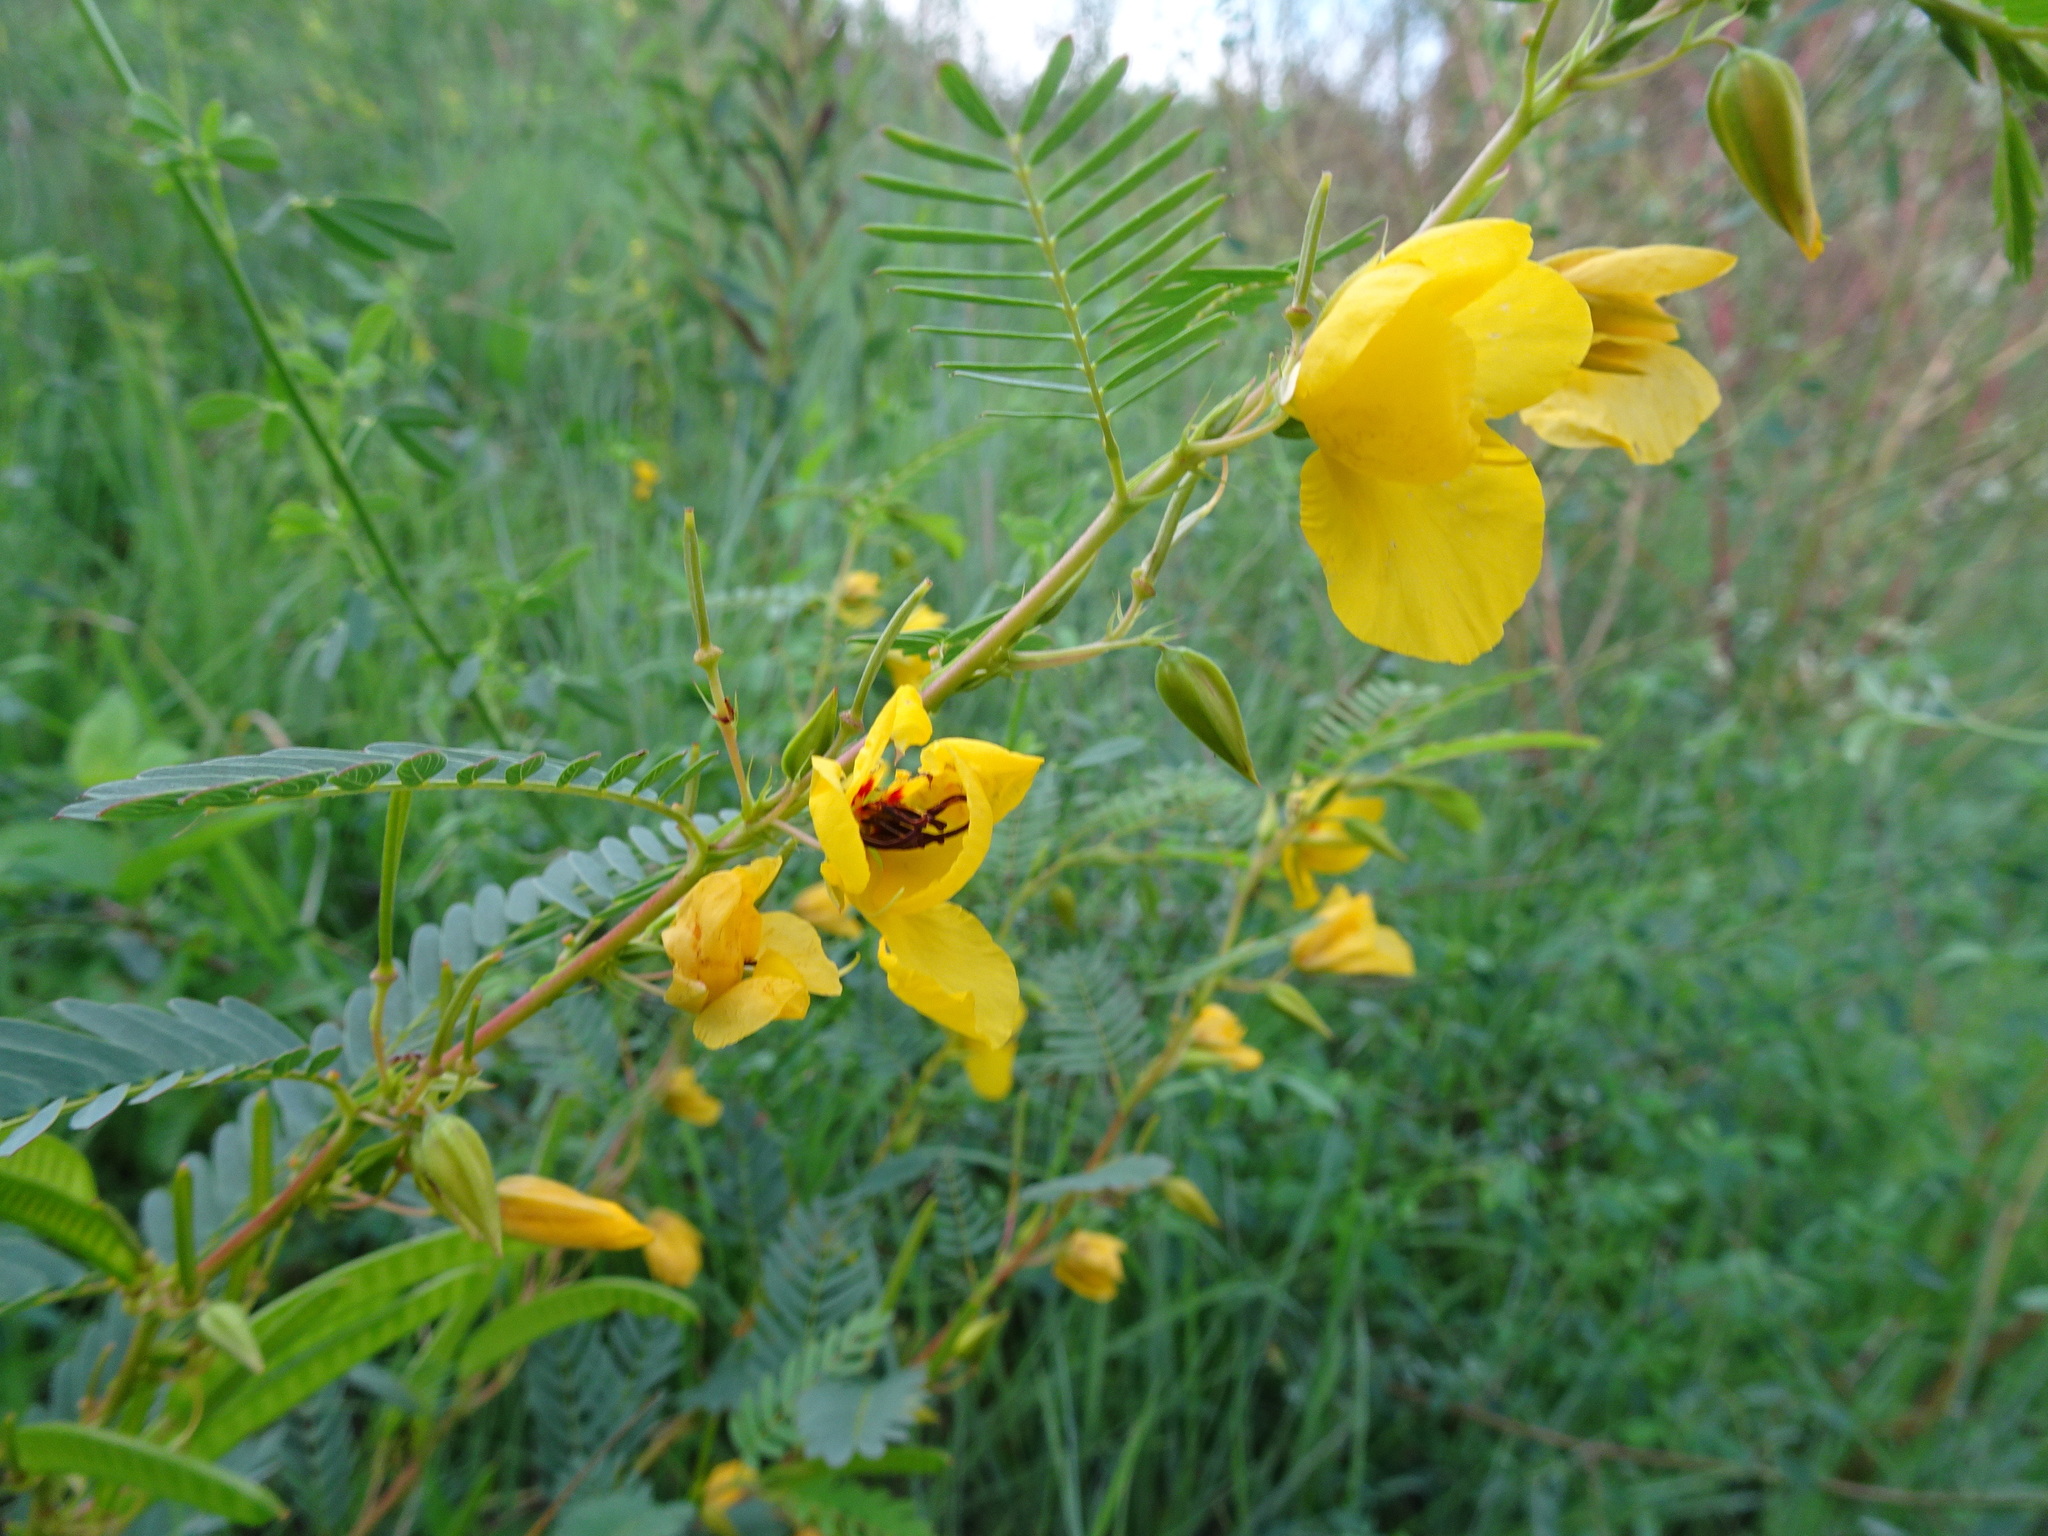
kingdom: Plantae
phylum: Tracheophyta
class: Magnoliopsida
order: Fabales
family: Fabaceae
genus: Chamaecrista
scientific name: Chamaecrista fasciculata
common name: Golden cassia
